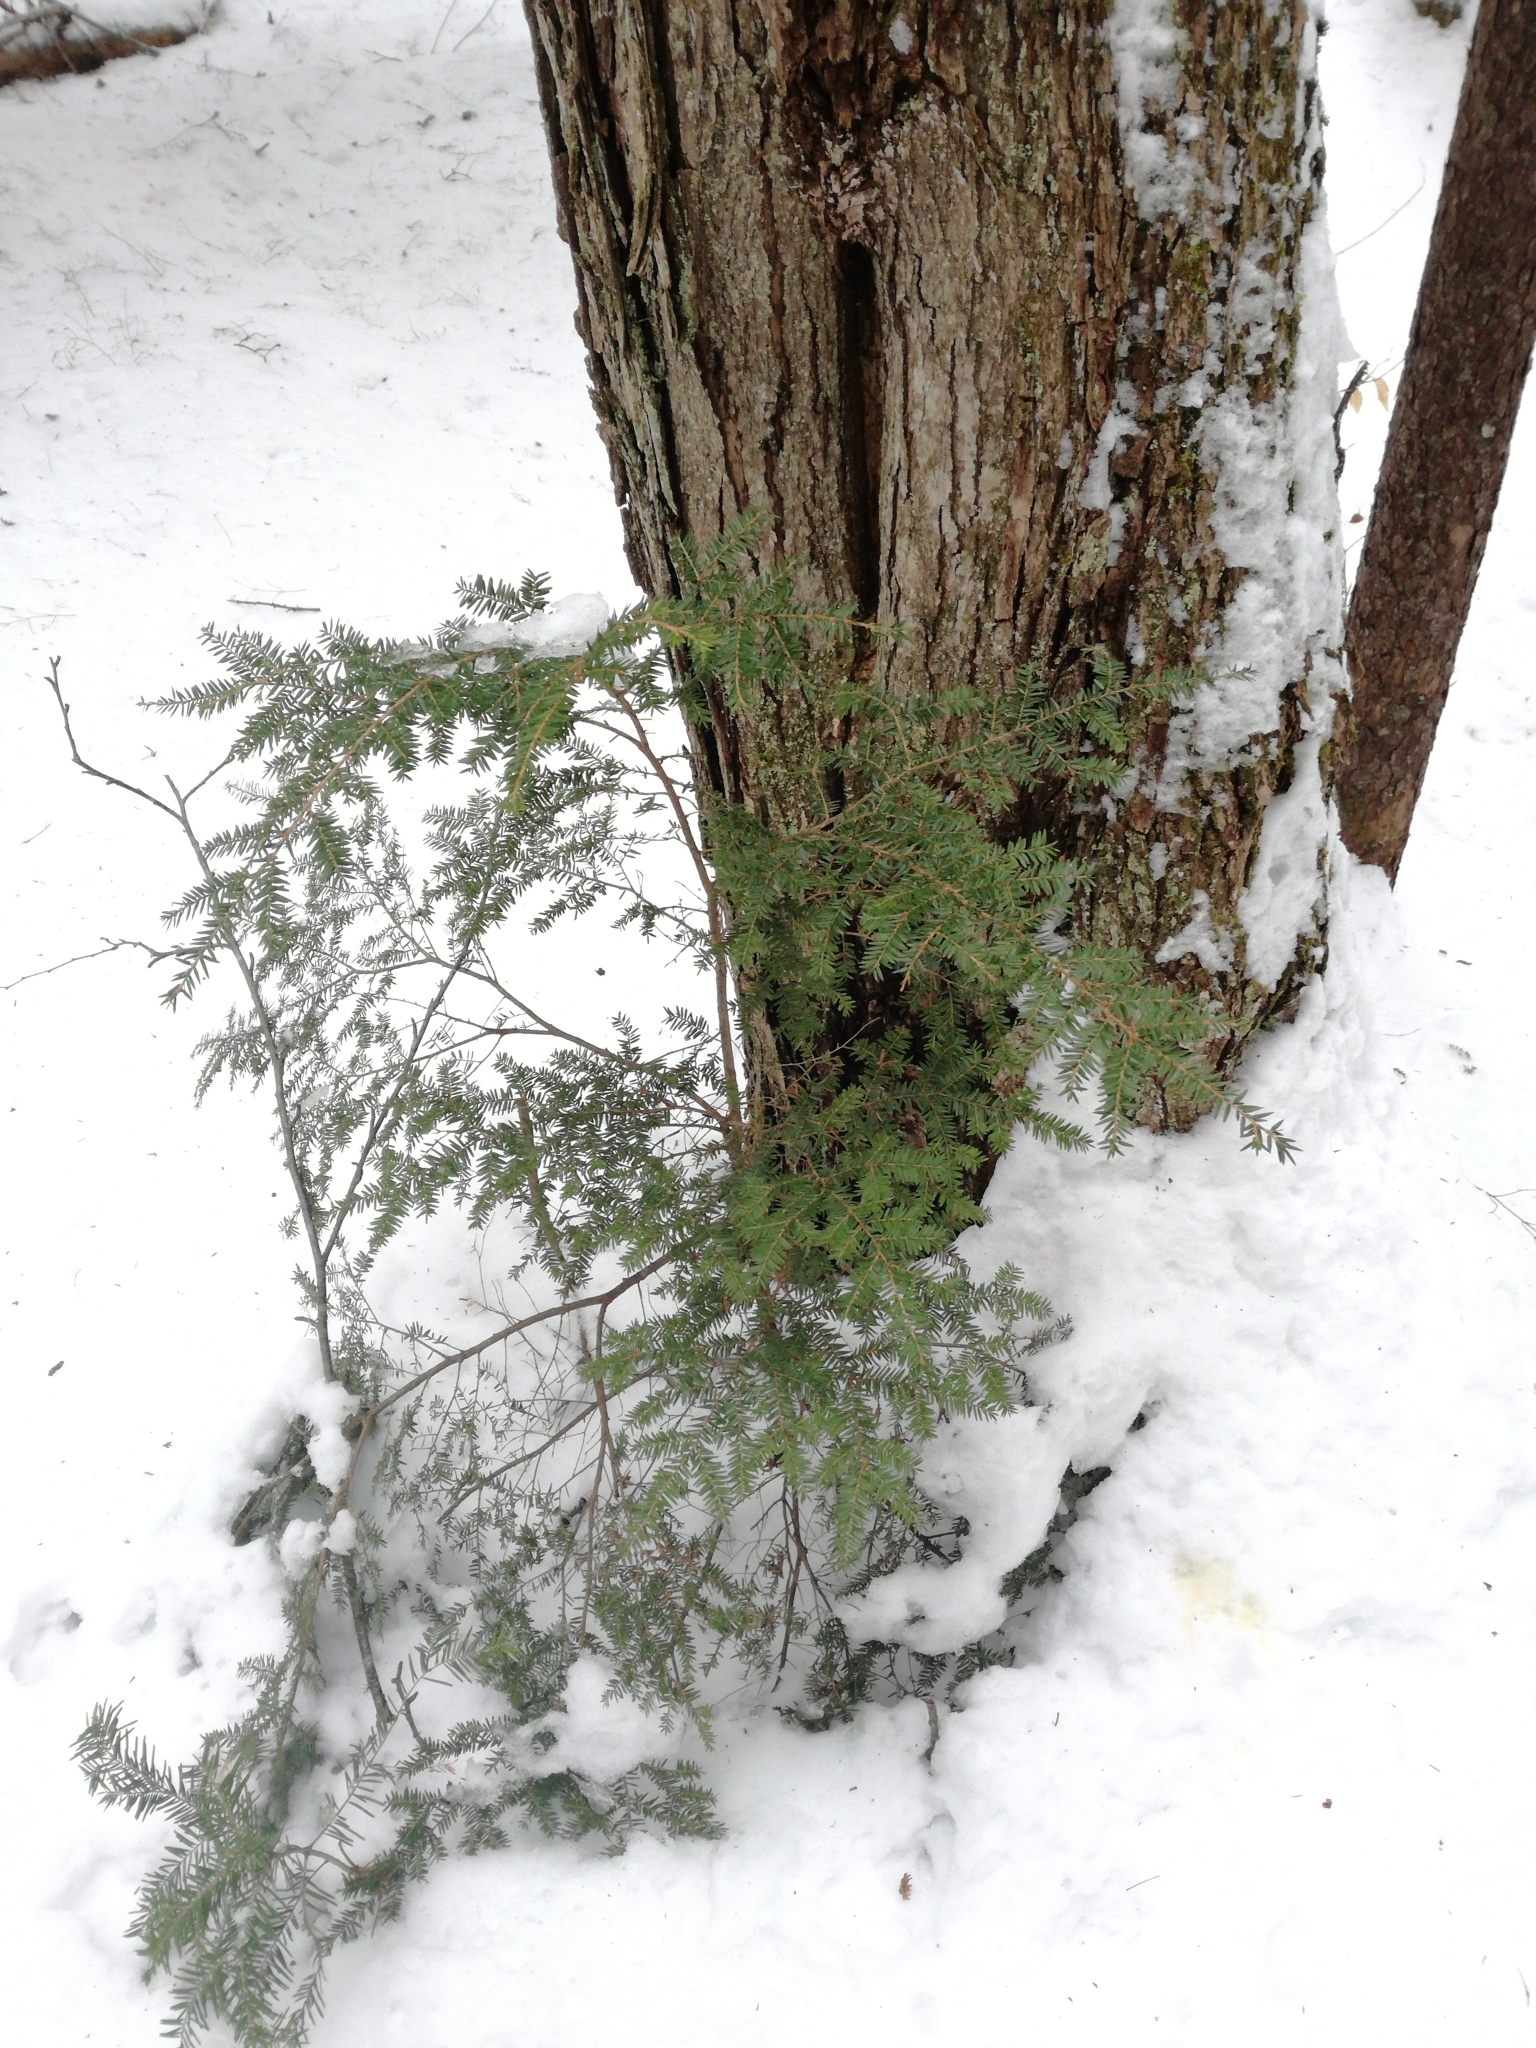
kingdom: Plantae
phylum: Tracheophyta
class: Pinopsida
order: Pinales
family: Pinaceae
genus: Tsuga
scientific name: Tsuga canadensis
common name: Eastern hemlock
